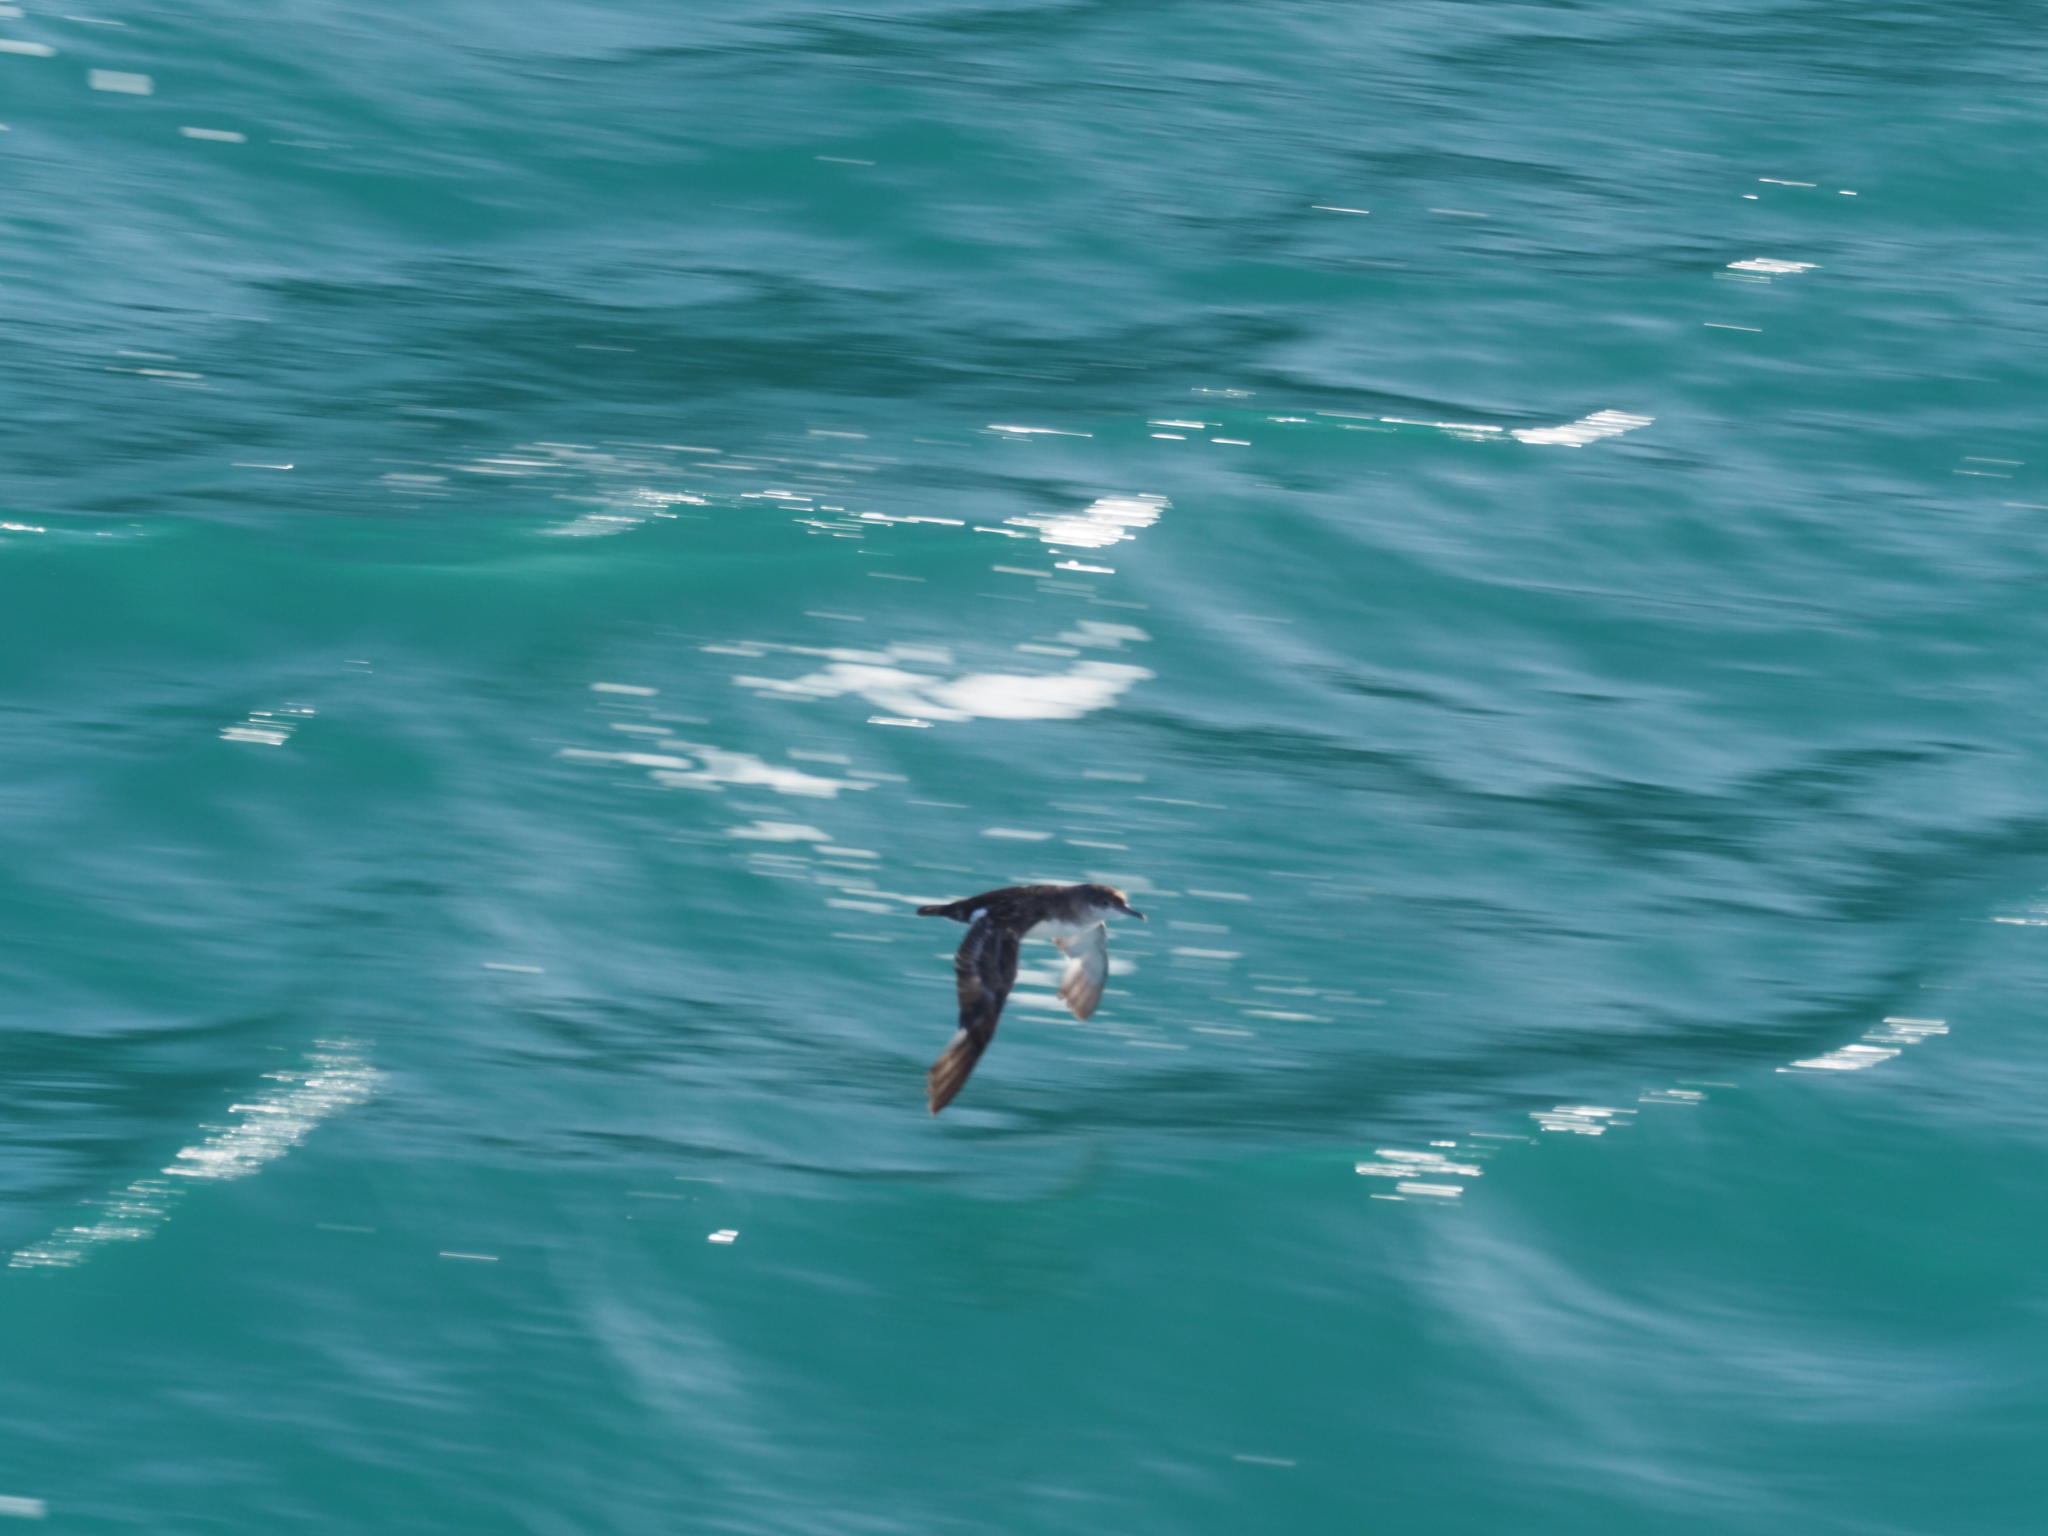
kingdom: Animalia
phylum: Chordata
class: Aves
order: Procellariiformes
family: Procellariidae
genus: Puffinus
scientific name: Puffinus gavia
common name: Fluttering shearwater
